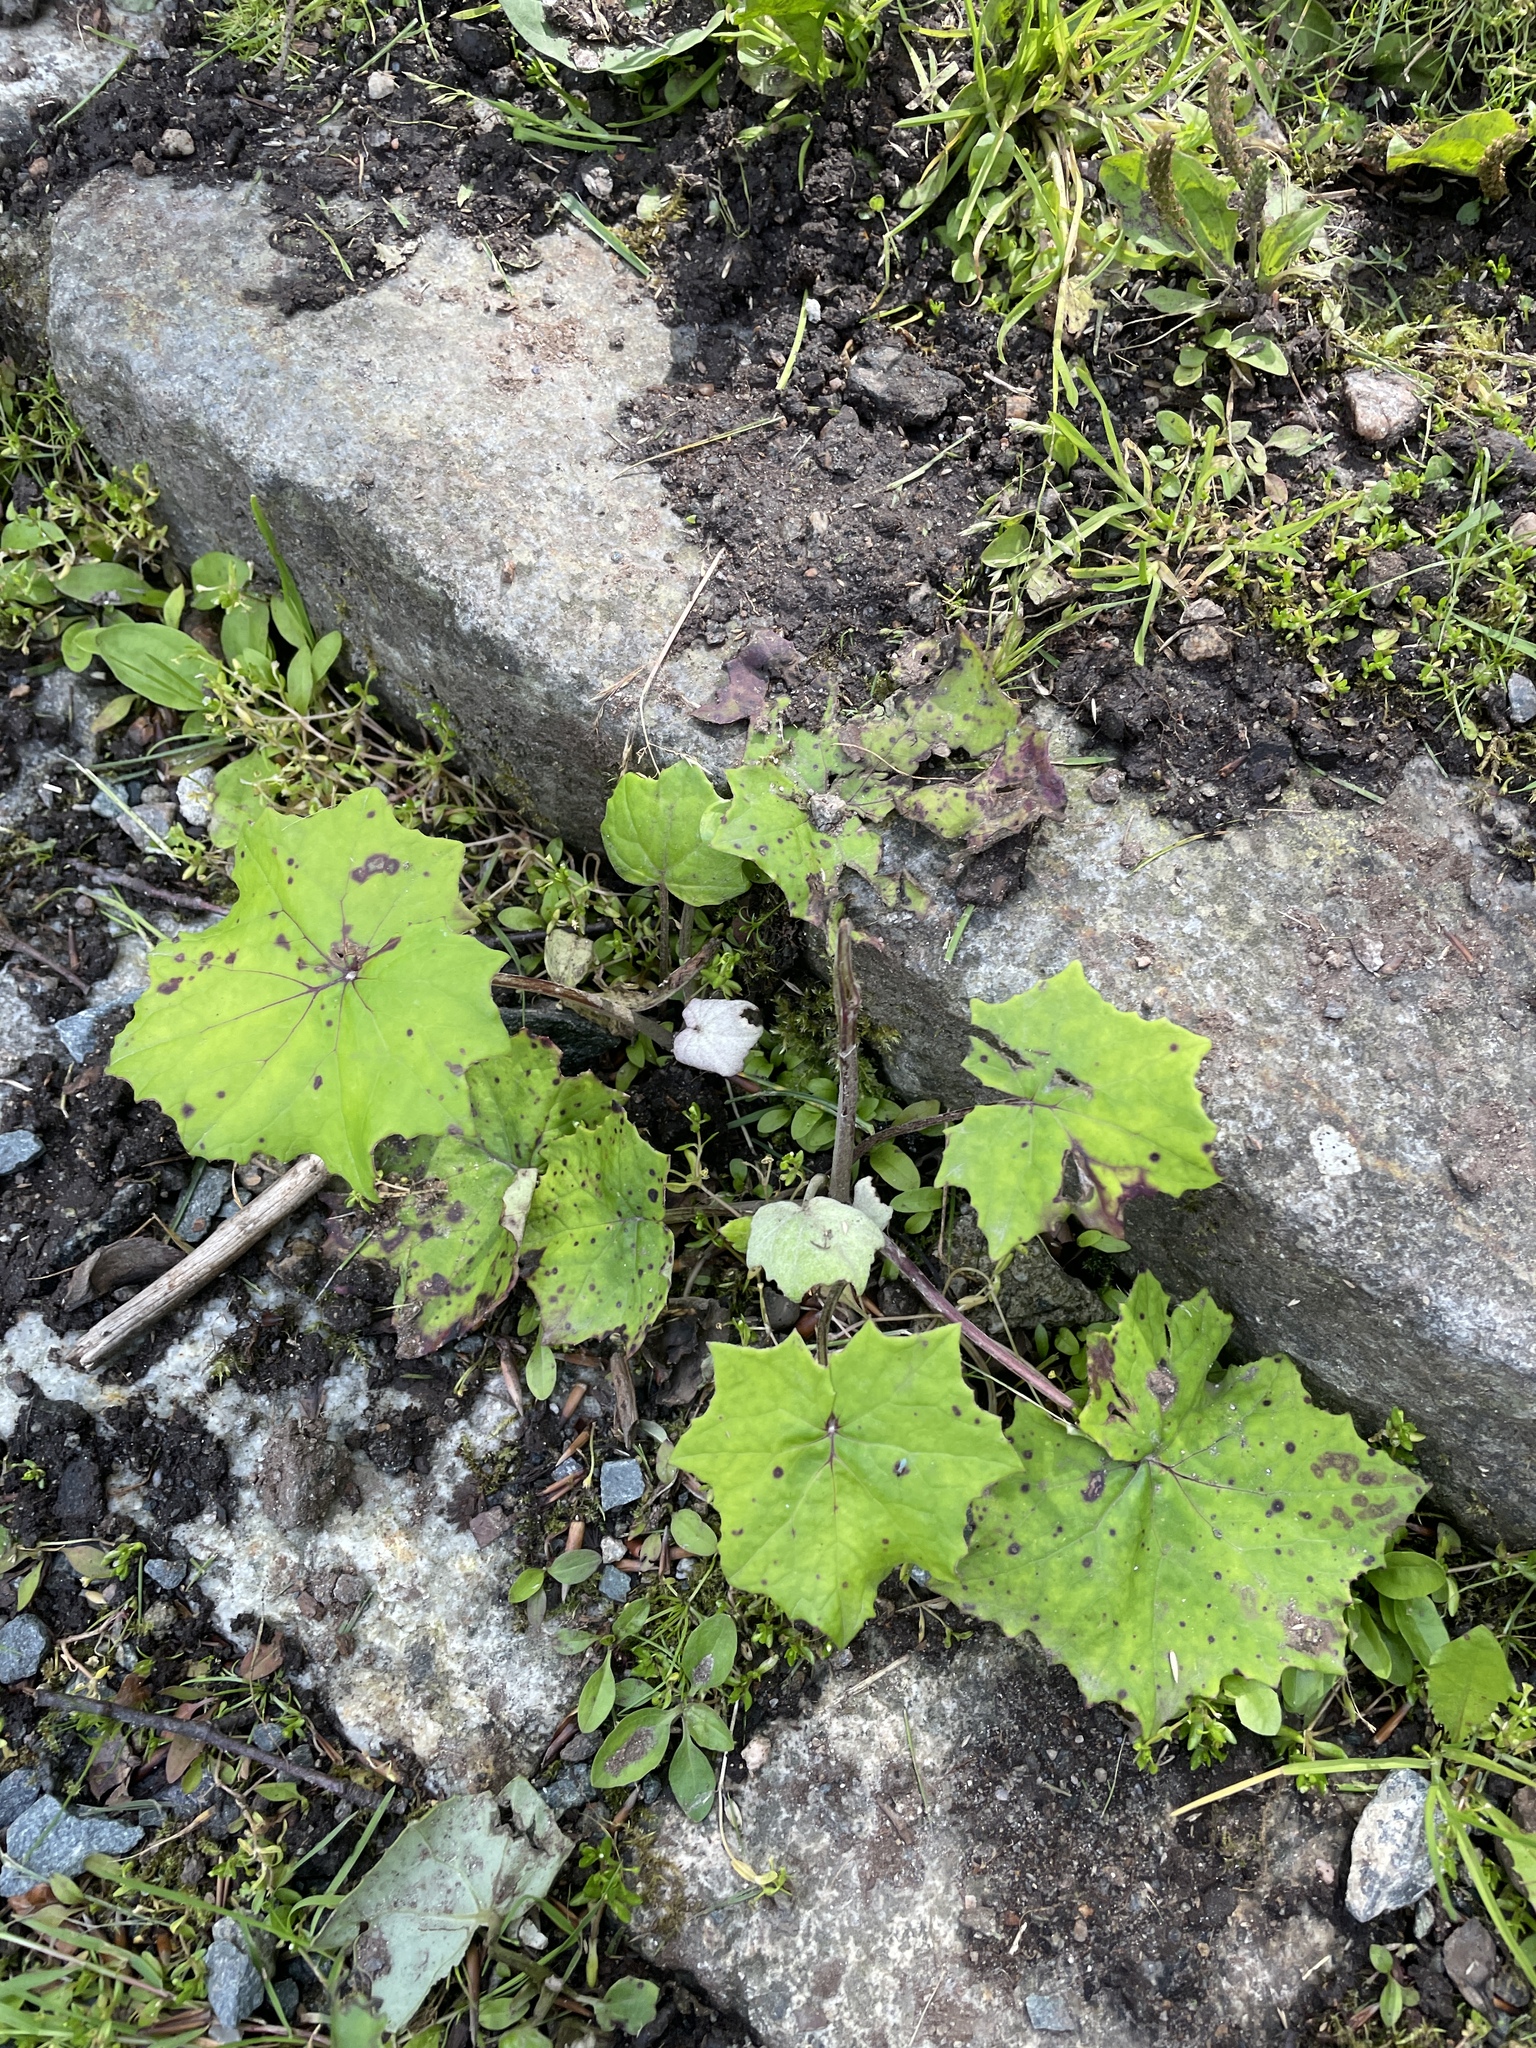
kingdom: Plantae
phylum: Tracheophyta
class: Magnoliopsida
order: Asterales
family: Asteraceae
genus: Tussilago
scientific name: Tussilago farfara
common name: Coltsfoot
